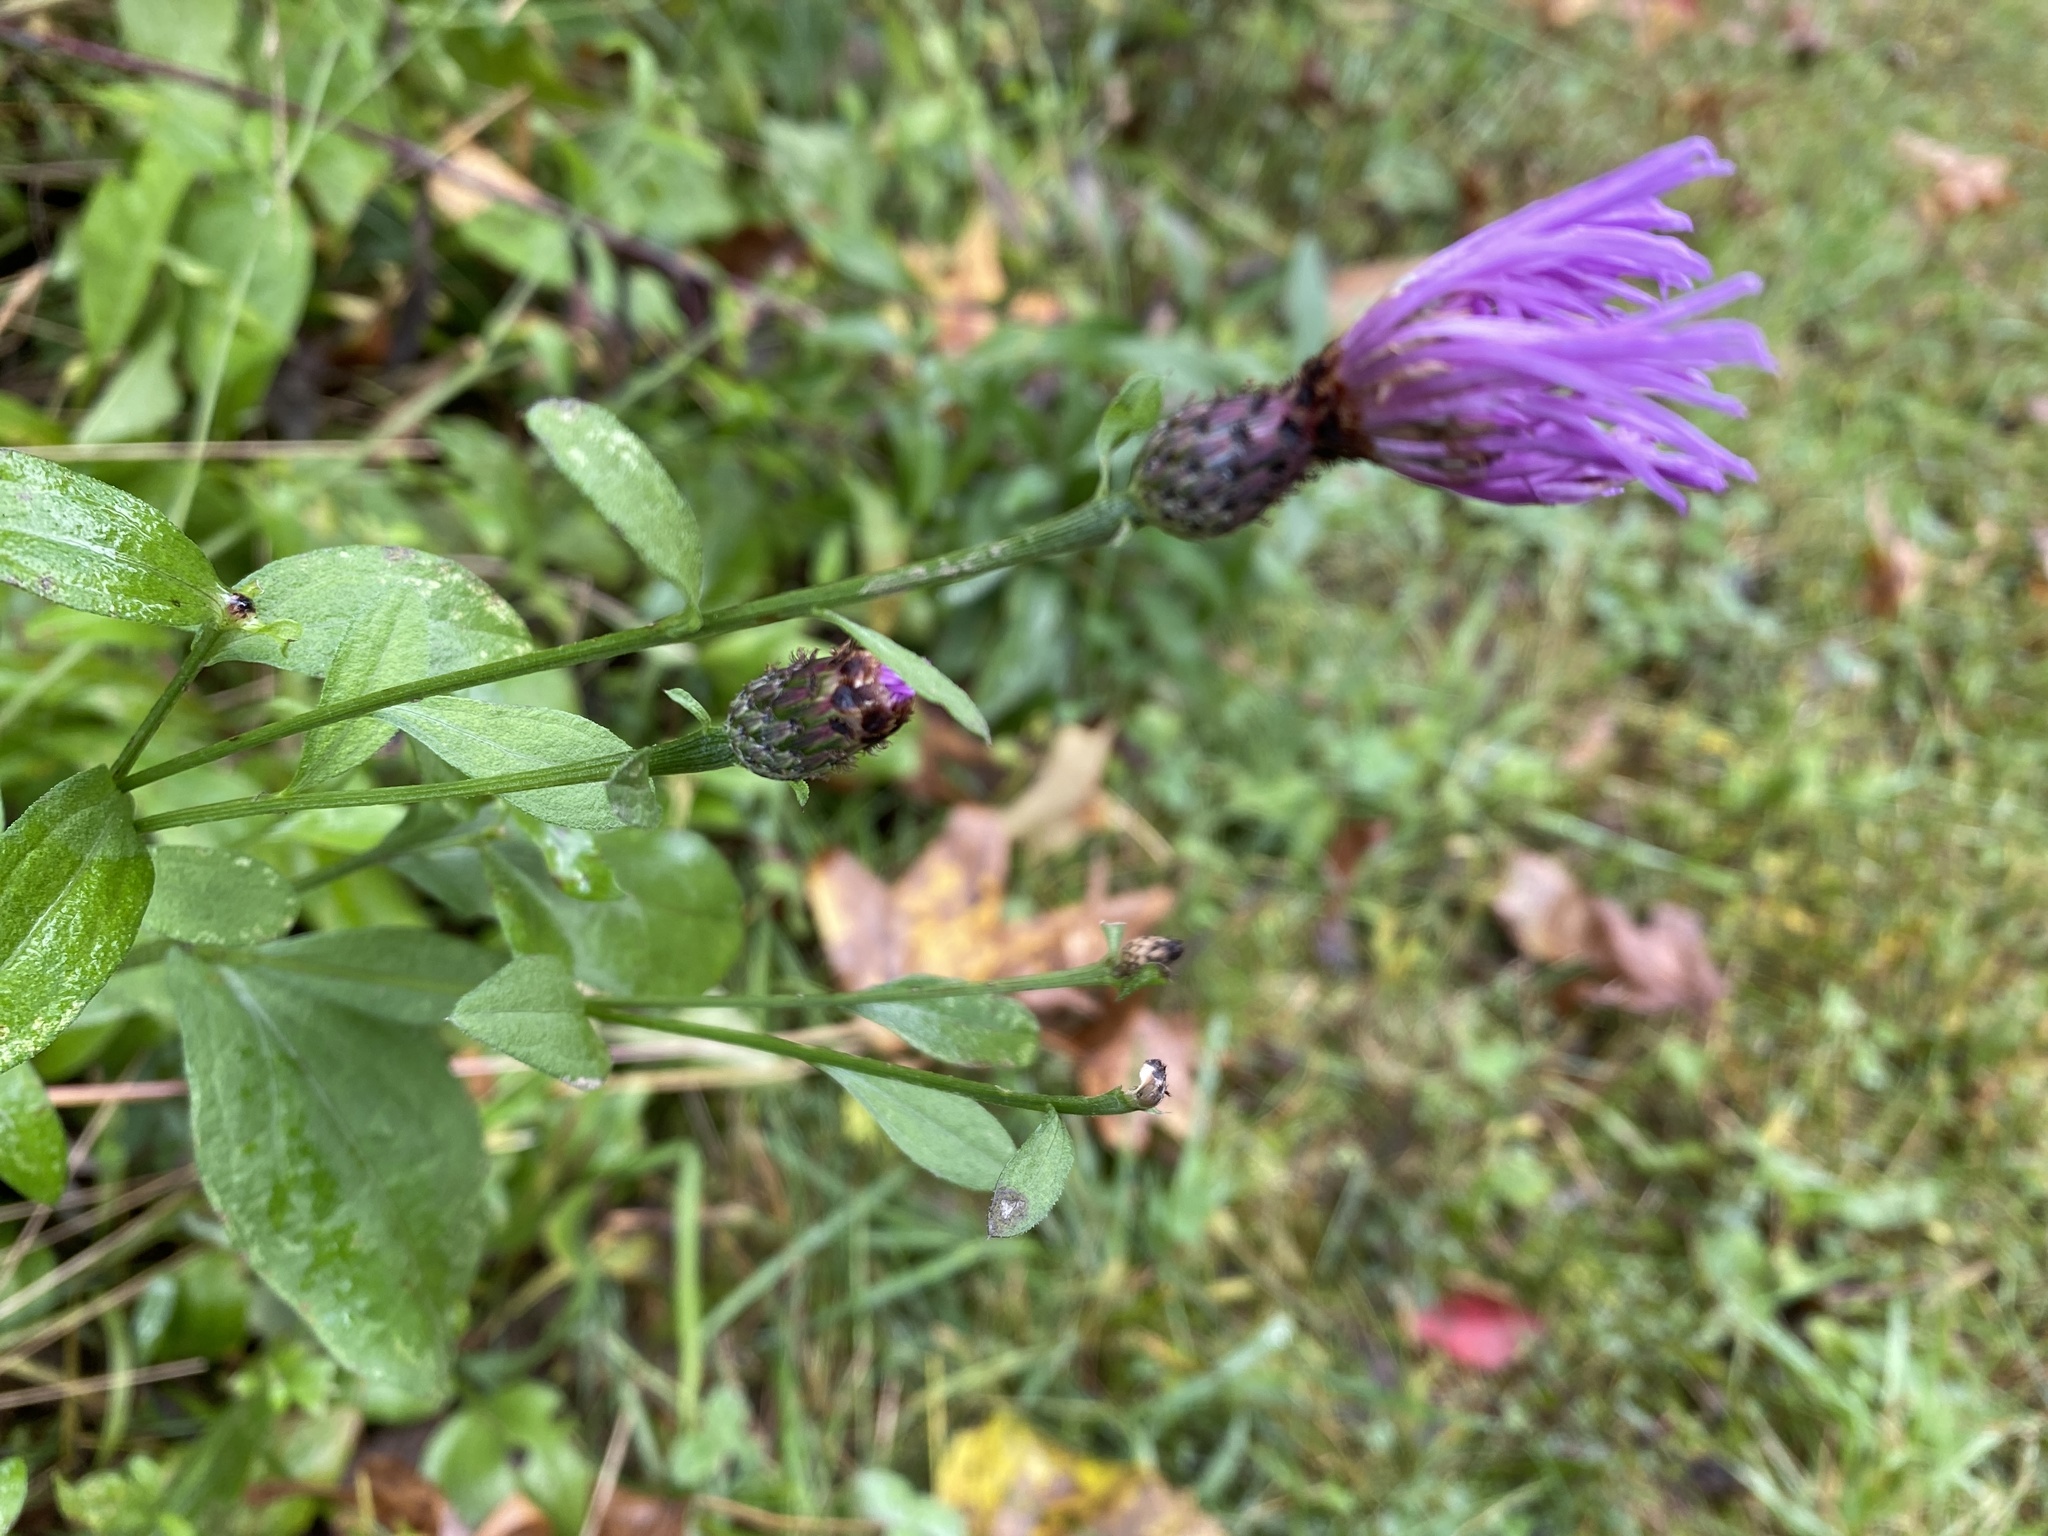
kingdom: Plantae
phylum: Tracheophyta
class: Magnoliopsida
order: Asterales
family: Asteraceae
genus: Centaurea
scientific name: Centaurea nigrescens
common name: Tyrol knapweed
